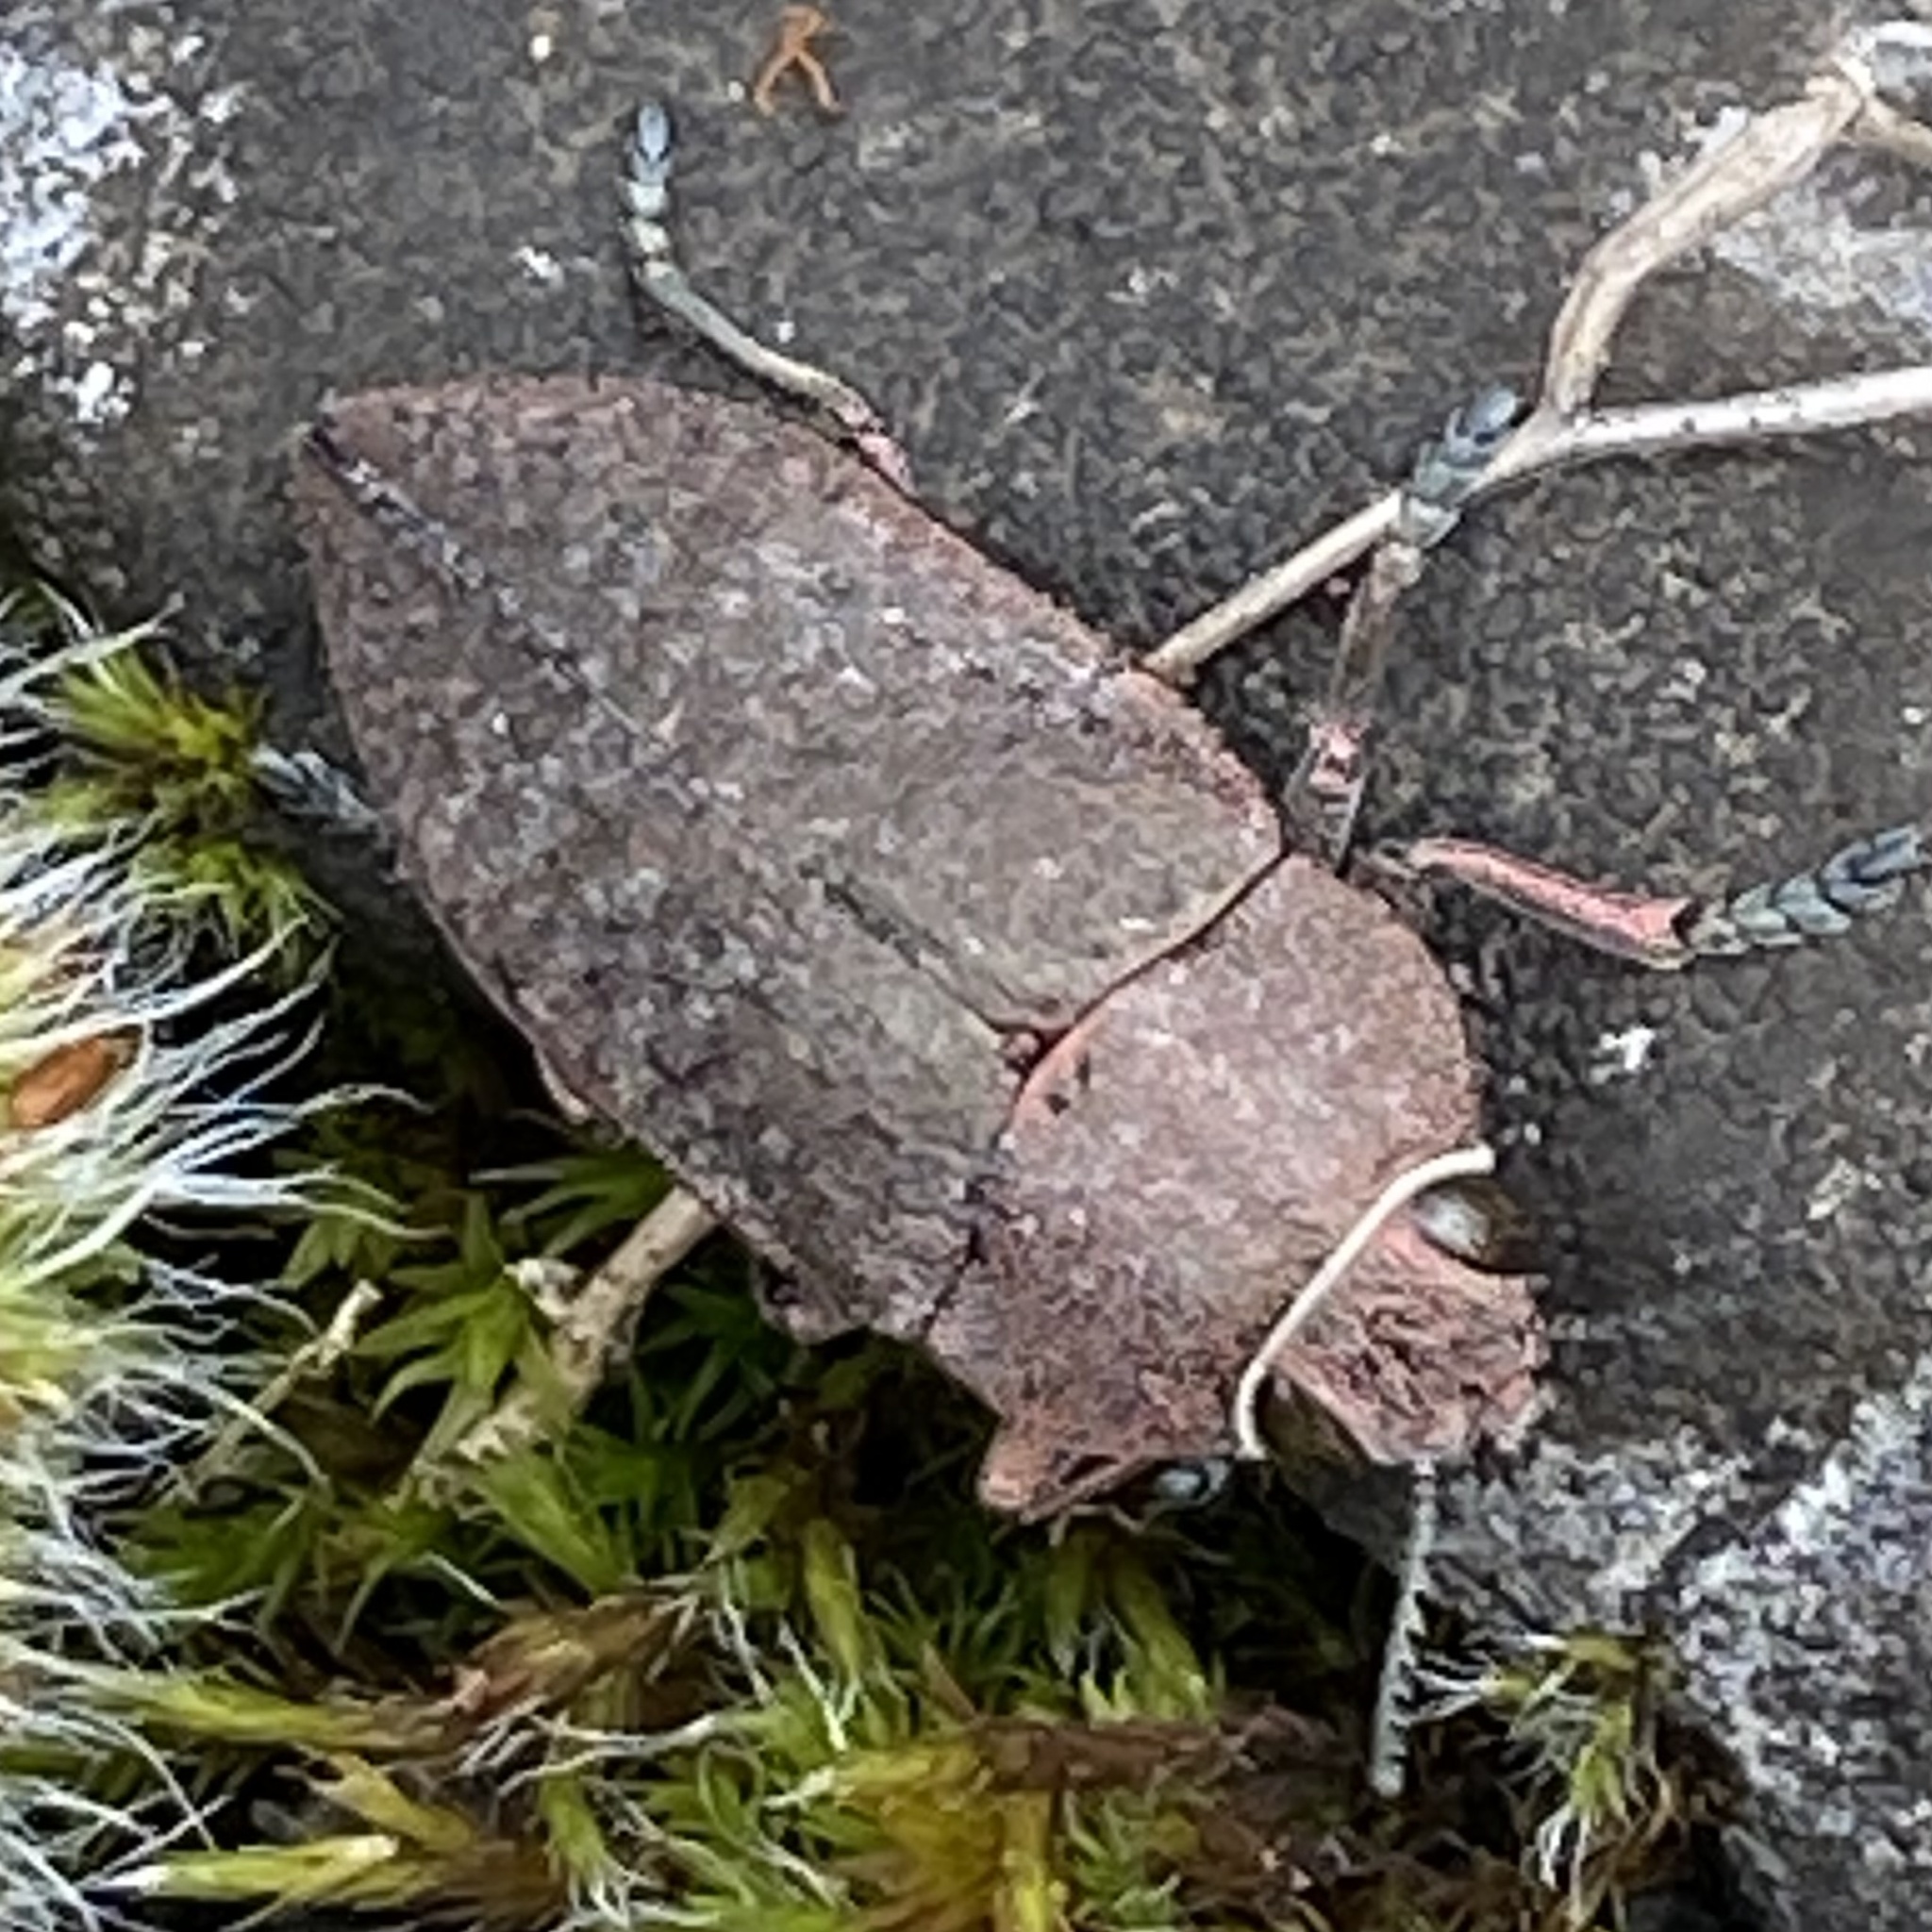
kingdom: Animalia
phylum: Arthropoda
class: Insecta
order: Coleoptera
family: Buprestidae
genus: Perotis
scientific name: Perotis lugubris
